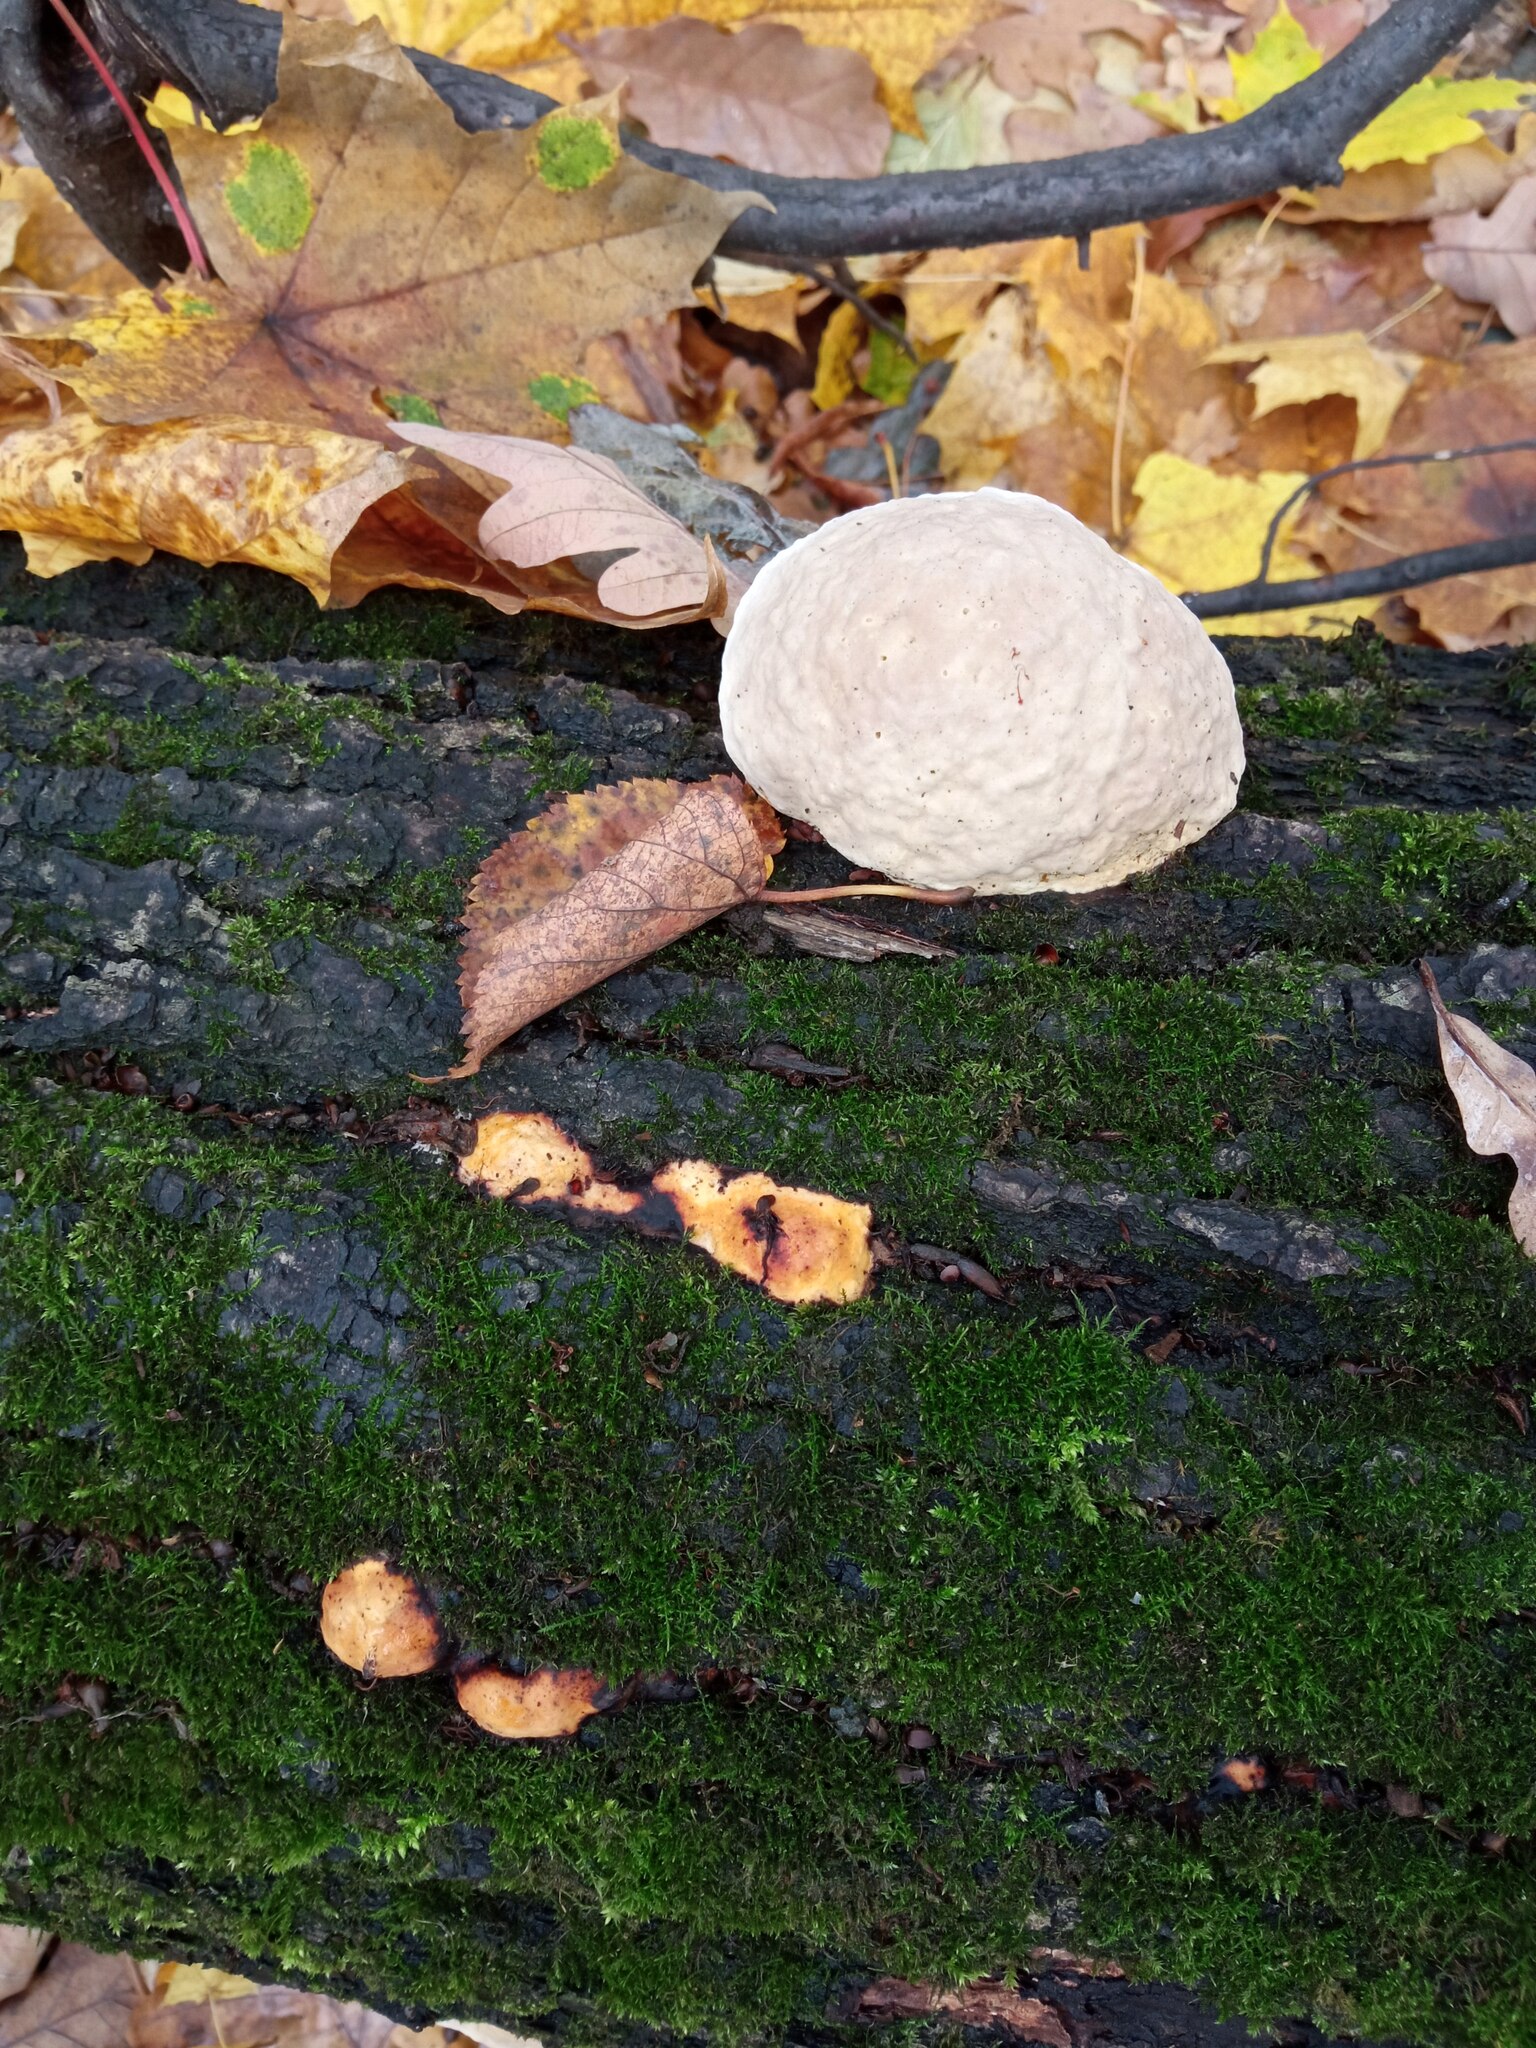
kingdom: Fungi
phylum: Basidiomycota
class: Agaricomycetes
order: Polyporales
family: Fomitopsidaceae
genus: Fomitopsis
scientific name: Fomitopsis pinicola
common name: Red-belted bracket
